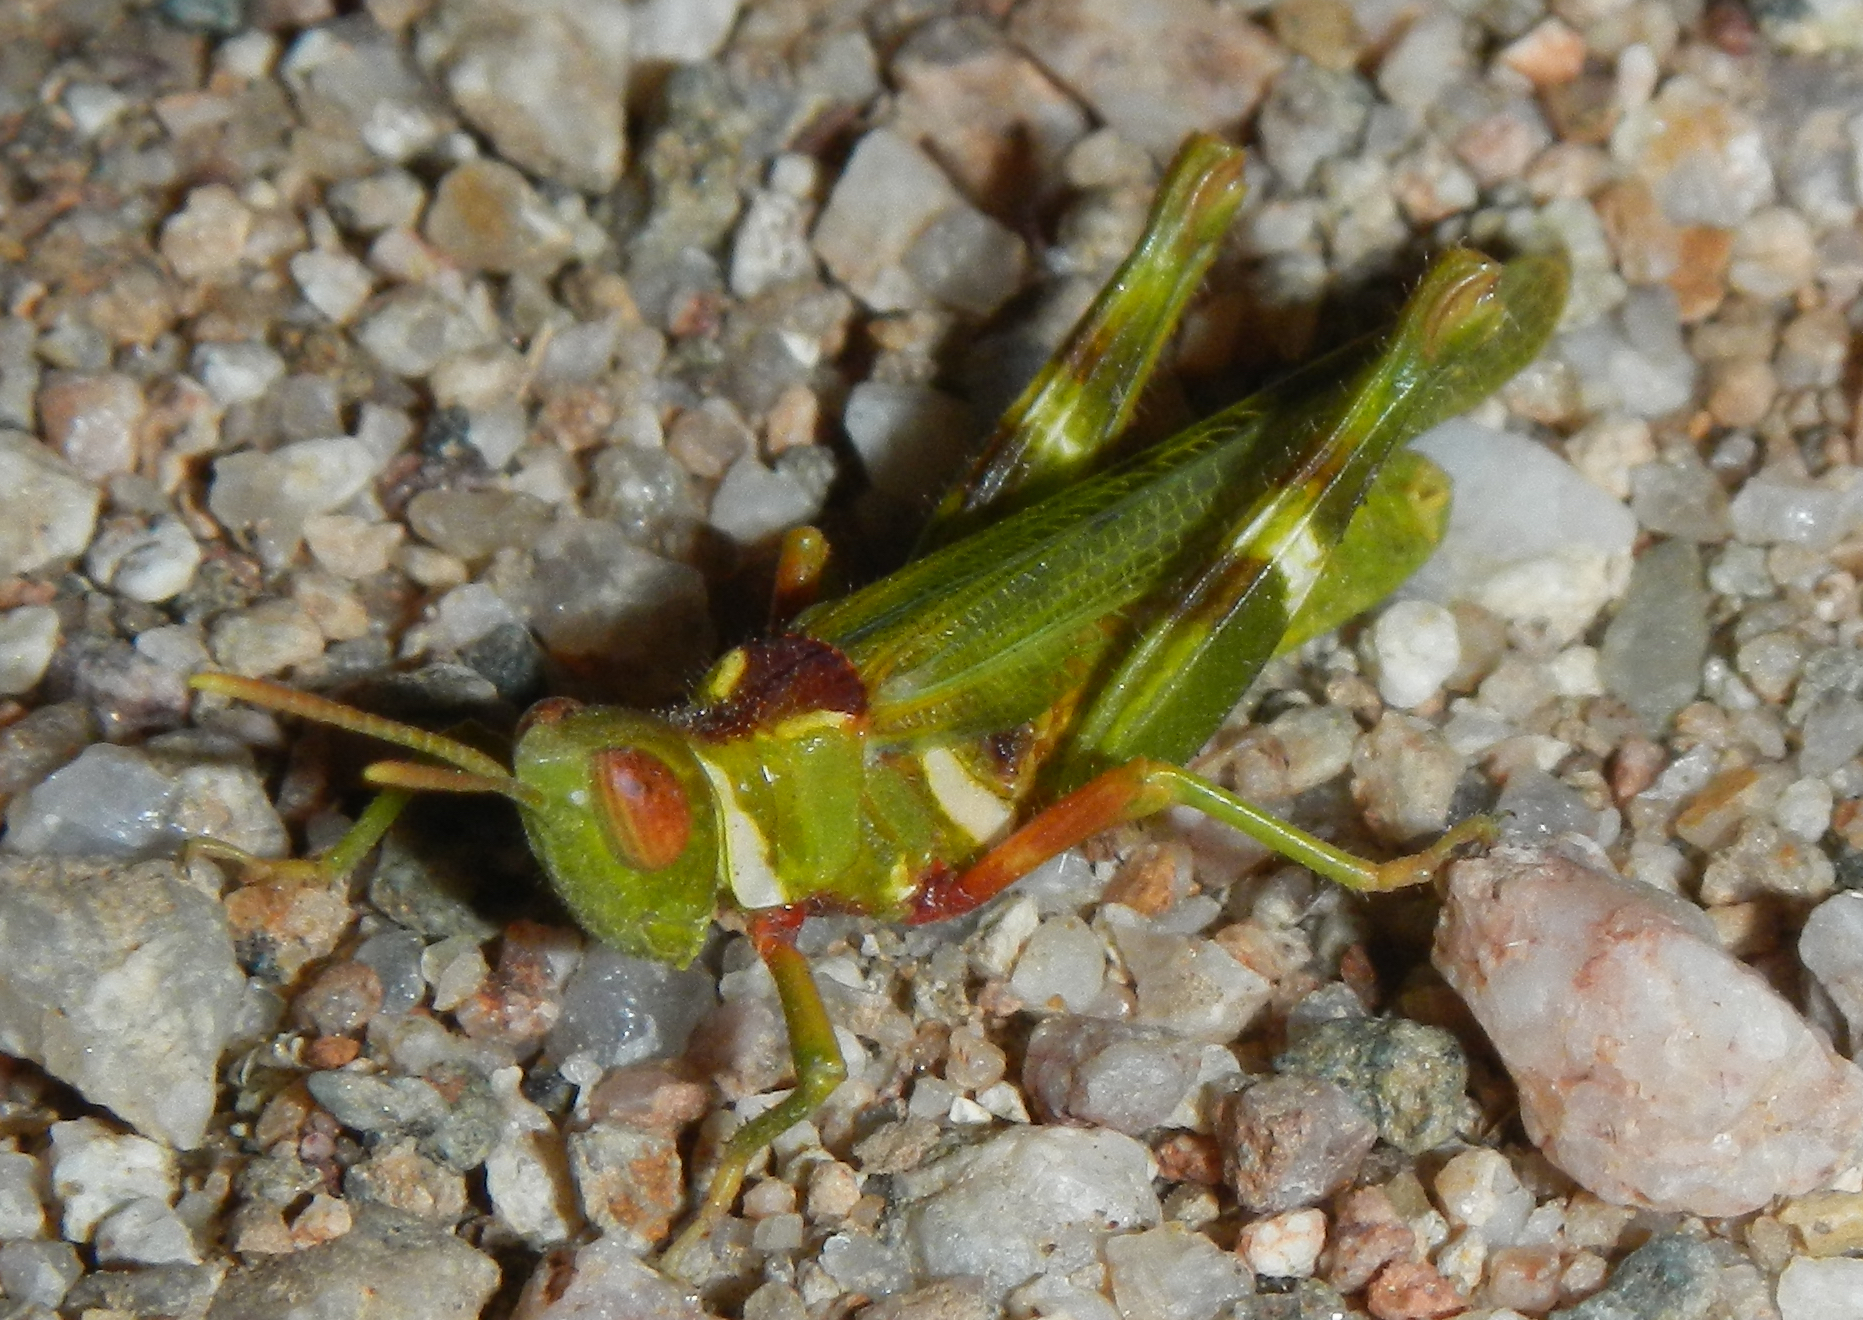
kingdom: Animalia
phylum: Arthropoda
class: Insecta
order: Orthoptera
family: Acrididae
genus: Bootettix
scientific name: Bootettix argentatus
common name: Creosote bush grasshopper
